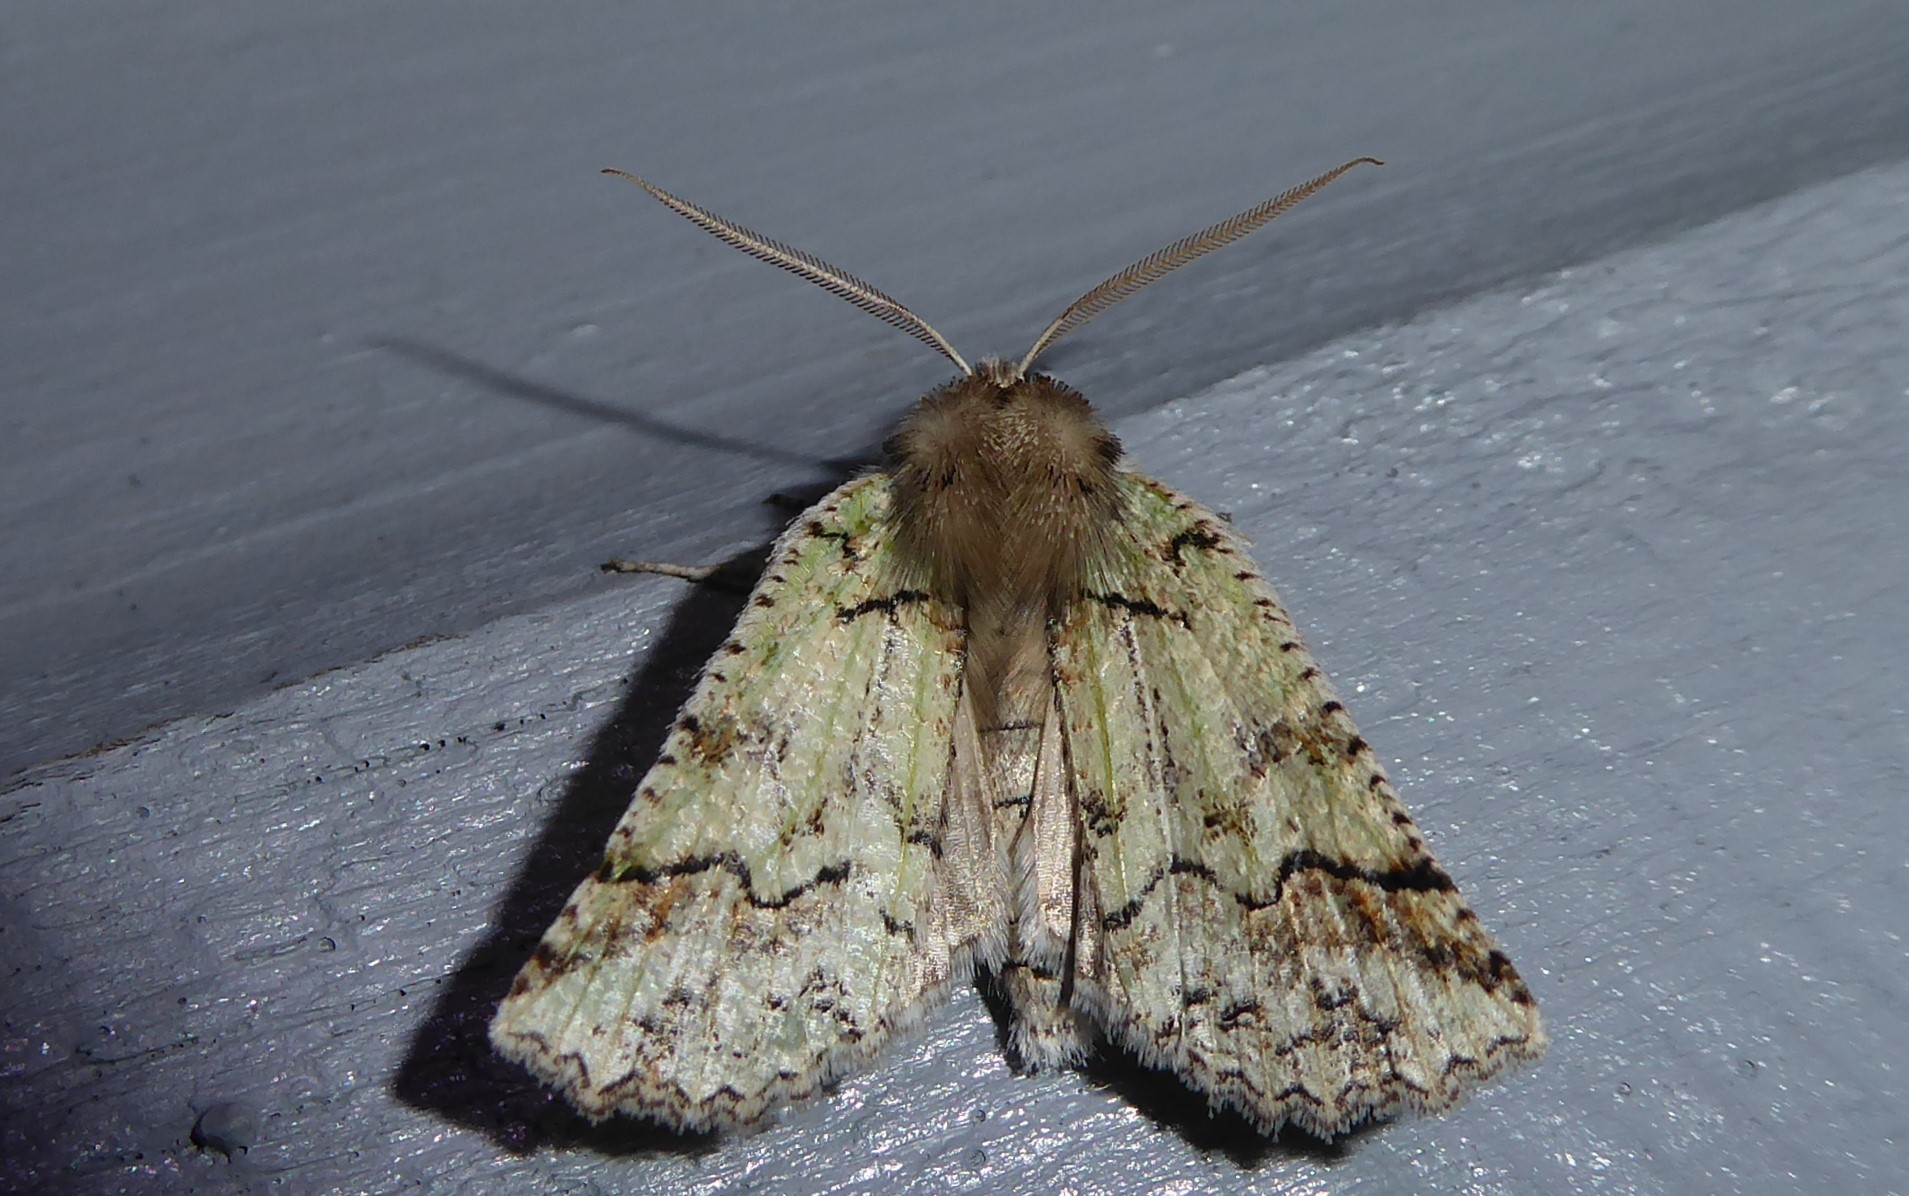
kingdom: Animalia
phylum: Arthropoda
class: Insecta
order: Lepidoptera
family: Geometridae
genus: Declana
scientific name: Declana floccosa
